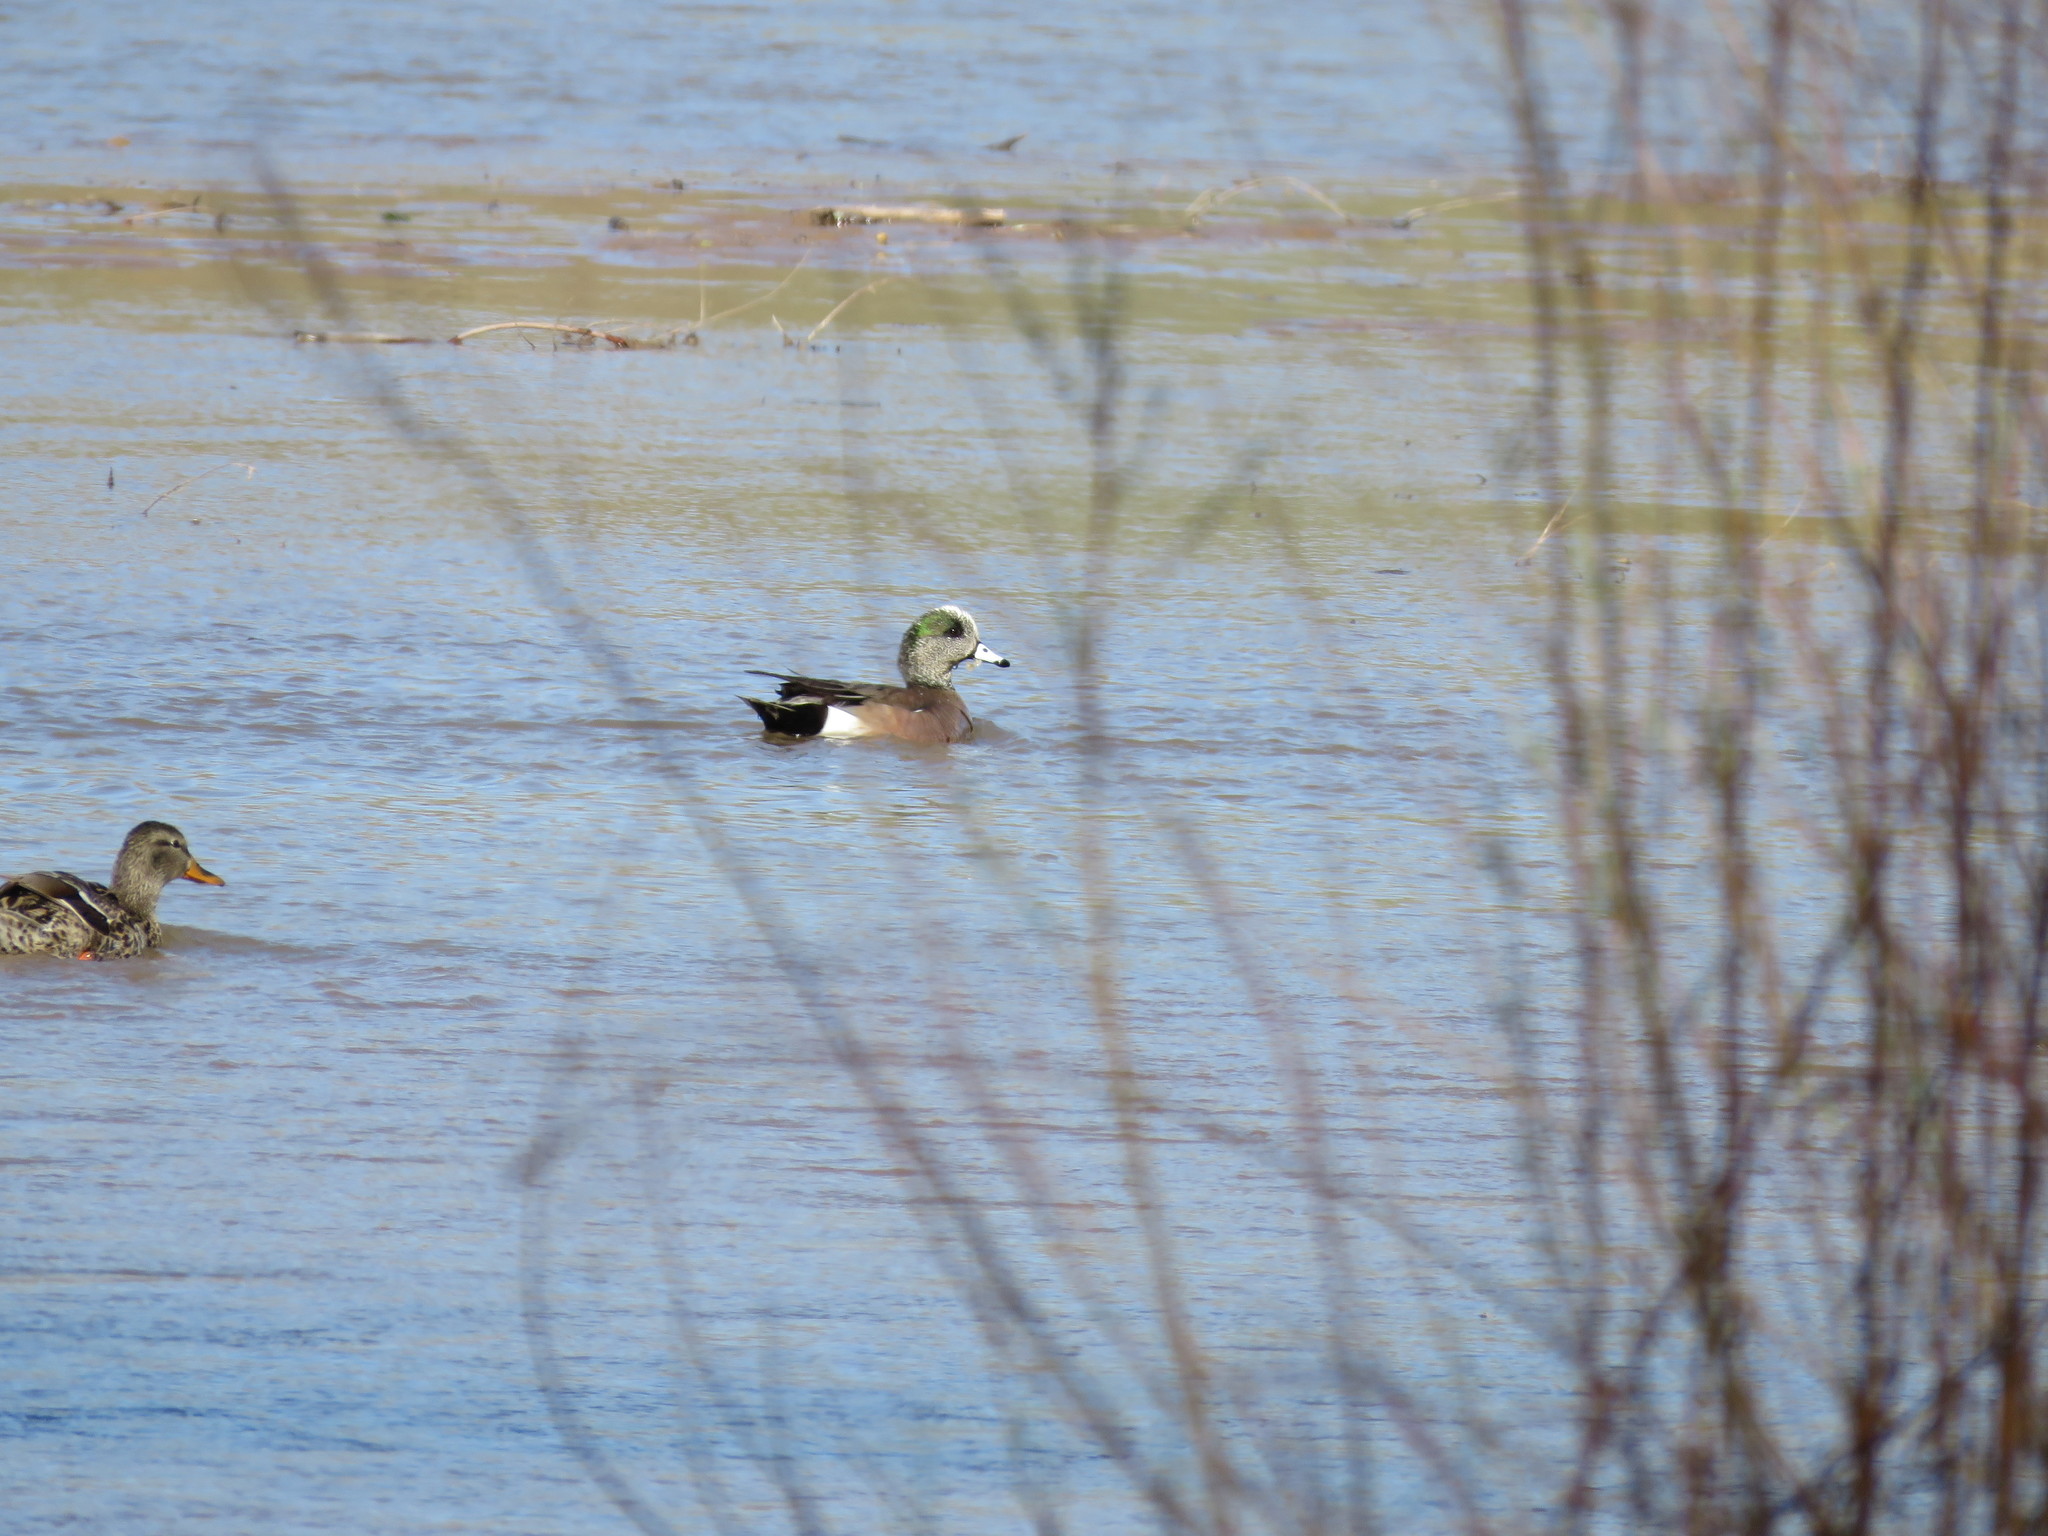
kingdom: Animalia
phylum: Chordata
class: Aves
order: Anseriformes
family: Anatidae
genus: Mareca
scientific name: Mareca americana
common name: American wigeon
